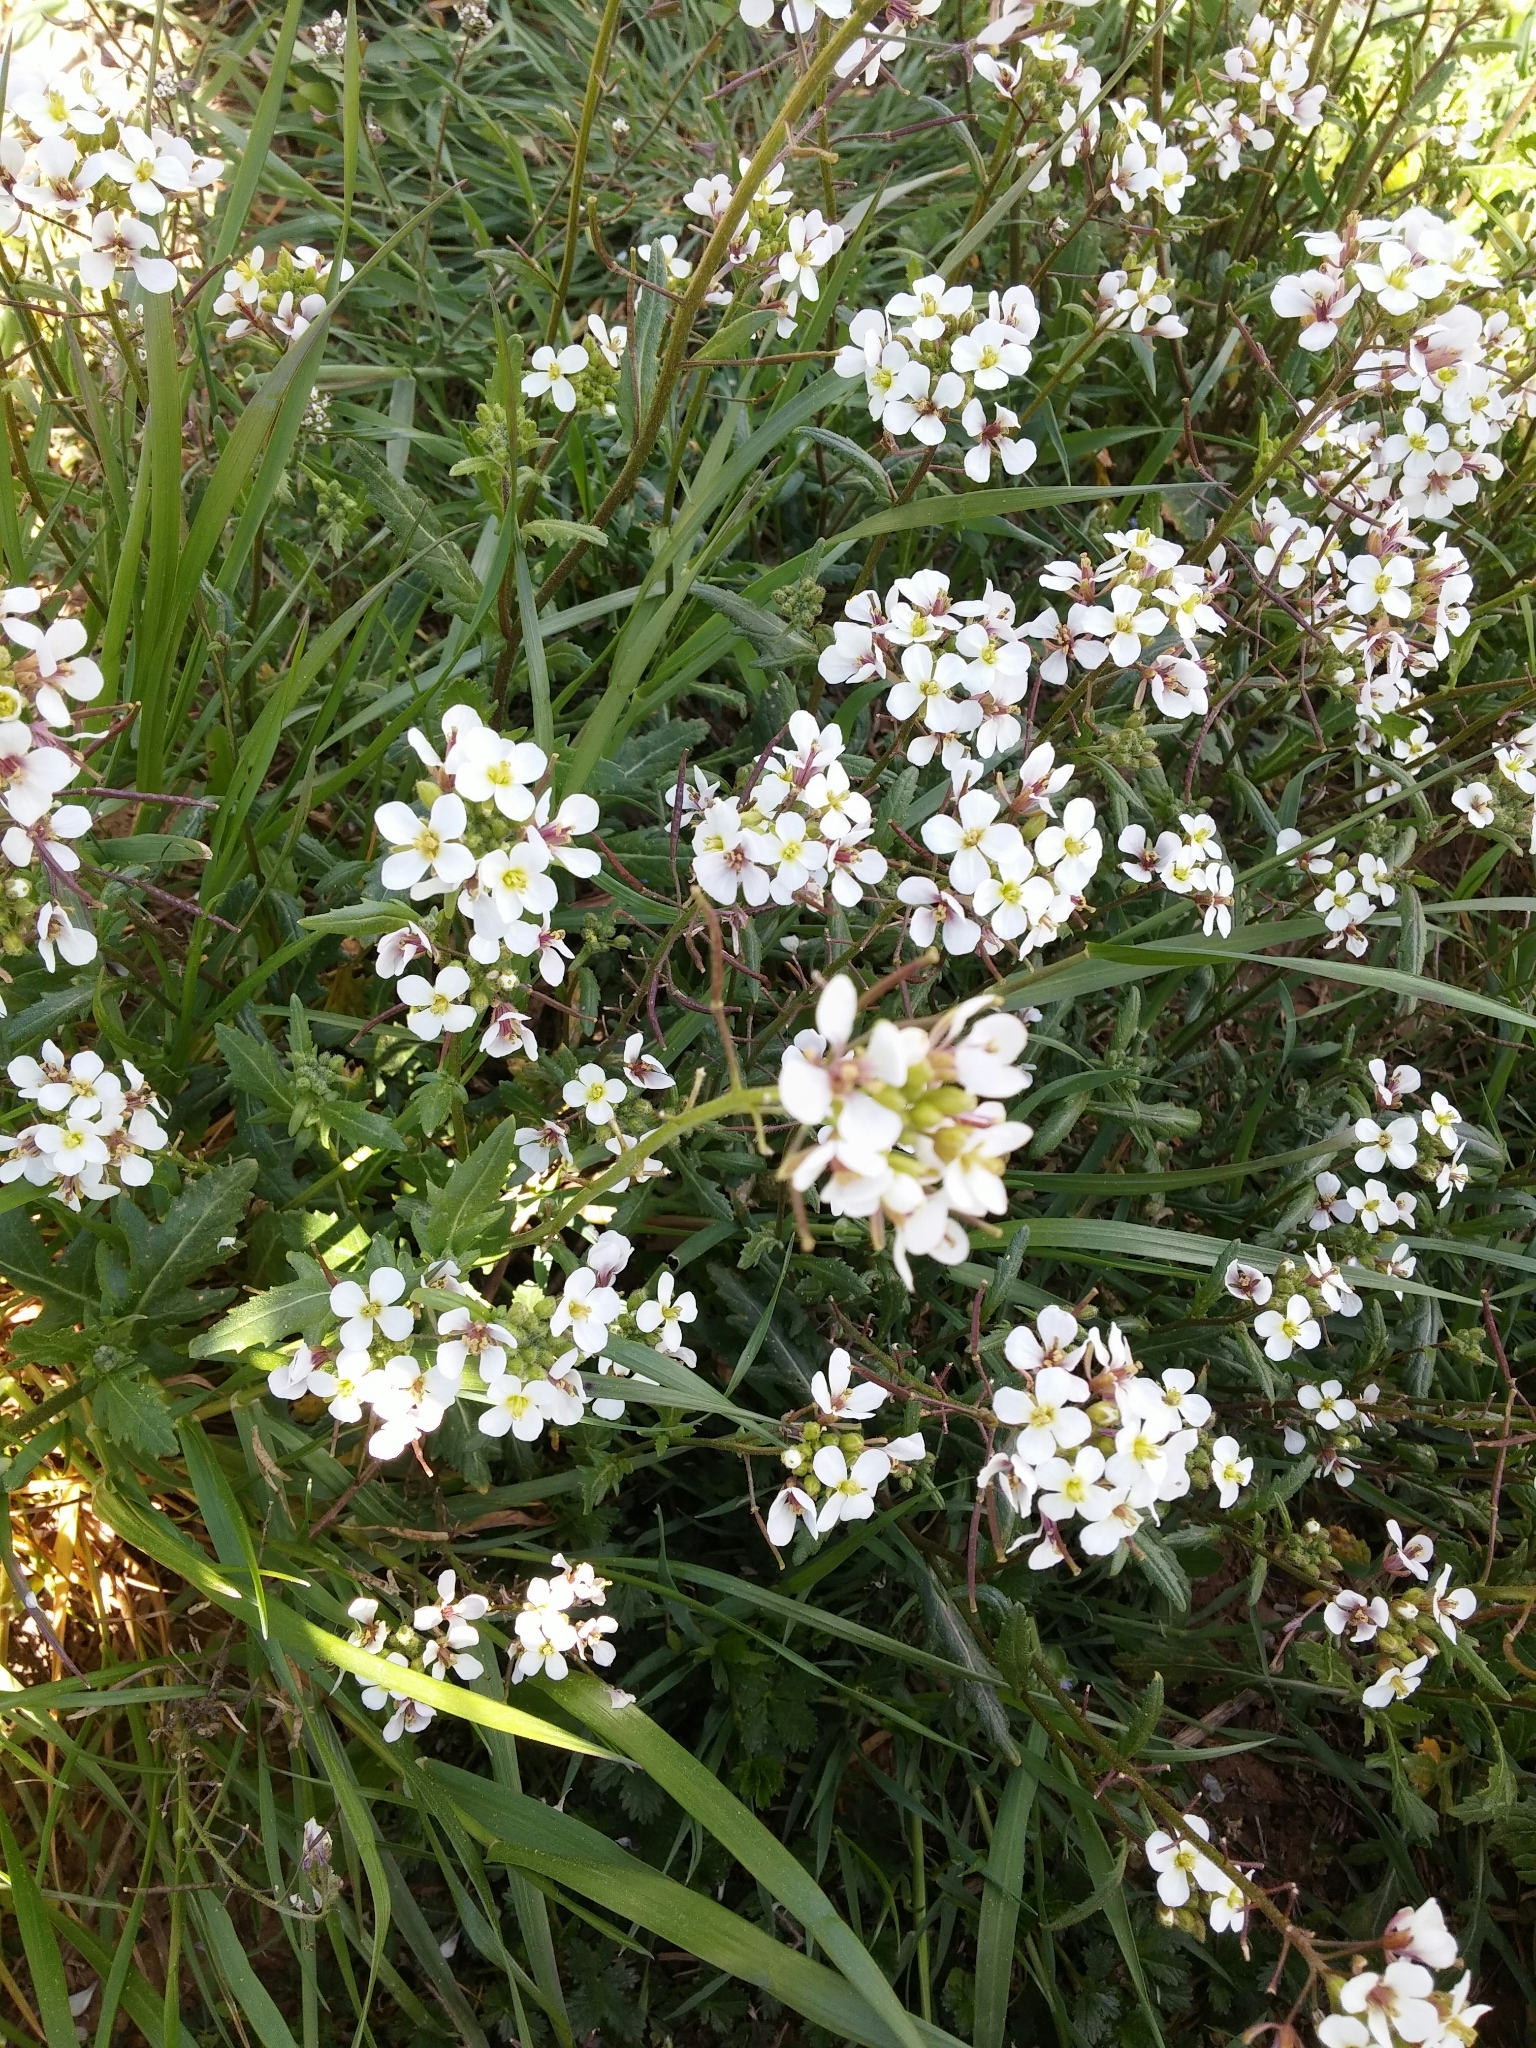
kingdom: Plantae
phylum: Tracheophyta
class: Magnoliopsida
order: Brassicales
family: Brassicaceae
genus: Diplotaxis
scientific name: Diplotaxis erucoides
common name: White rocket
